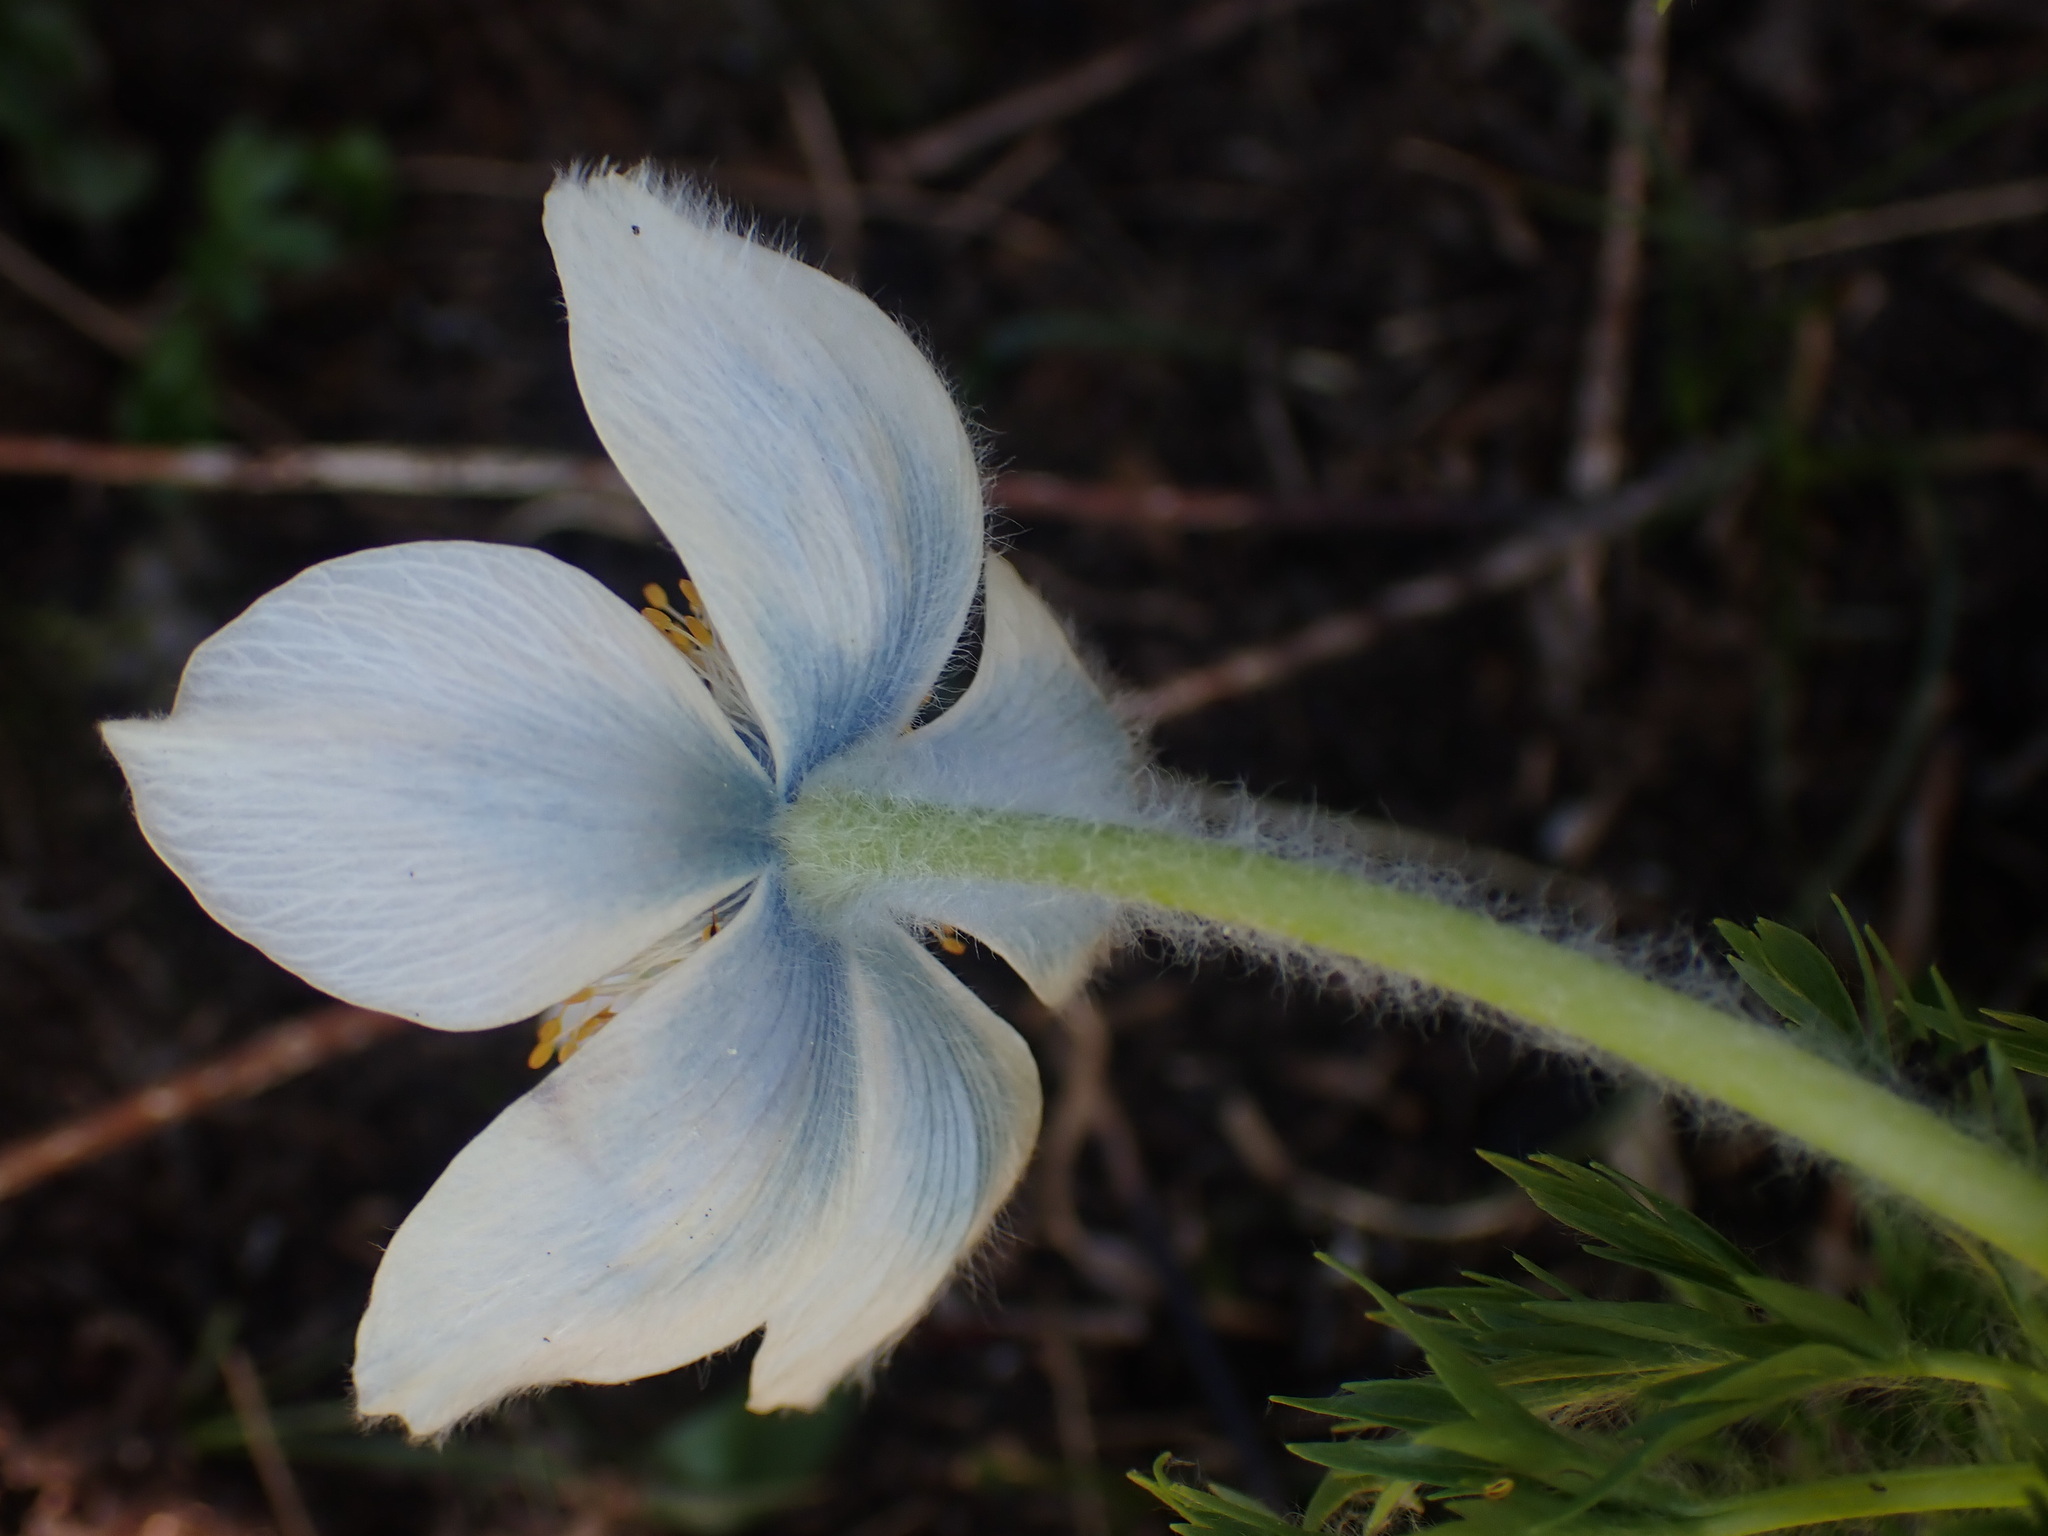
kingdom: Plantae
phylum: Tracheophyta
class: Magnoliopsida
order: Ranunculales
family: Ranunculaceae
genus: Pulsatilla
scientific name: Pulsatilla occidentalis
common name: Mountain pasqueflower
